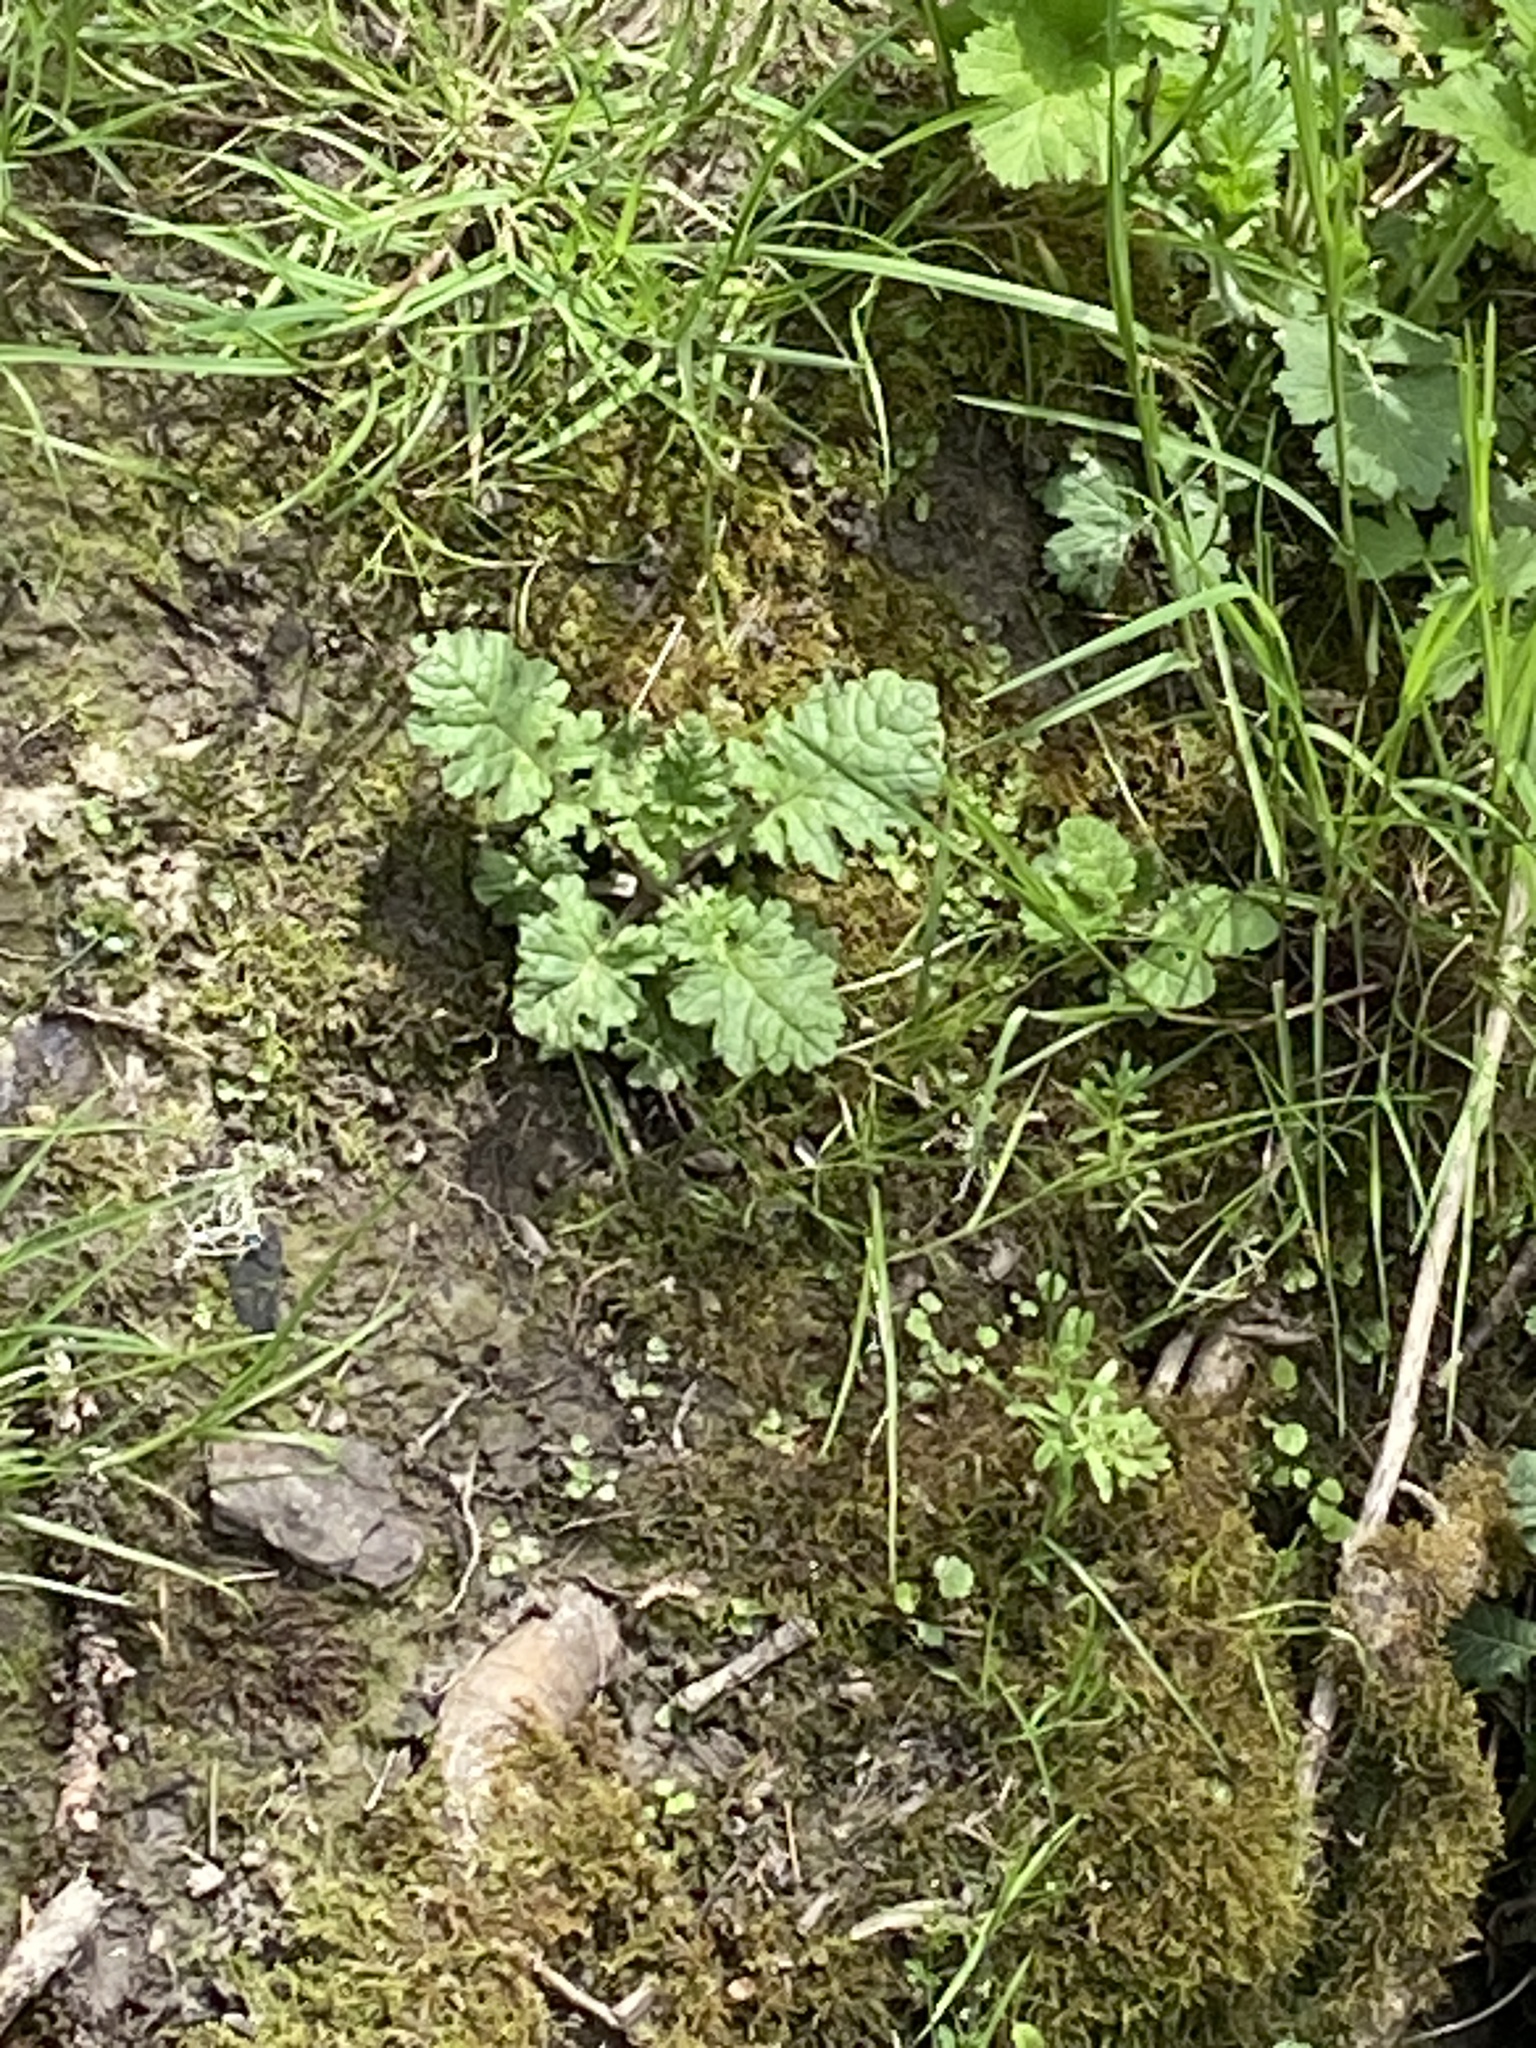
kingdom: Plantae
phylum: Tracheophyta
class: Magnoliopsida
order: Asterales
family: Asteraceae
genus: Jacobaea
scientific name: Jacobaea vulgaris
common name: Stinking willie
